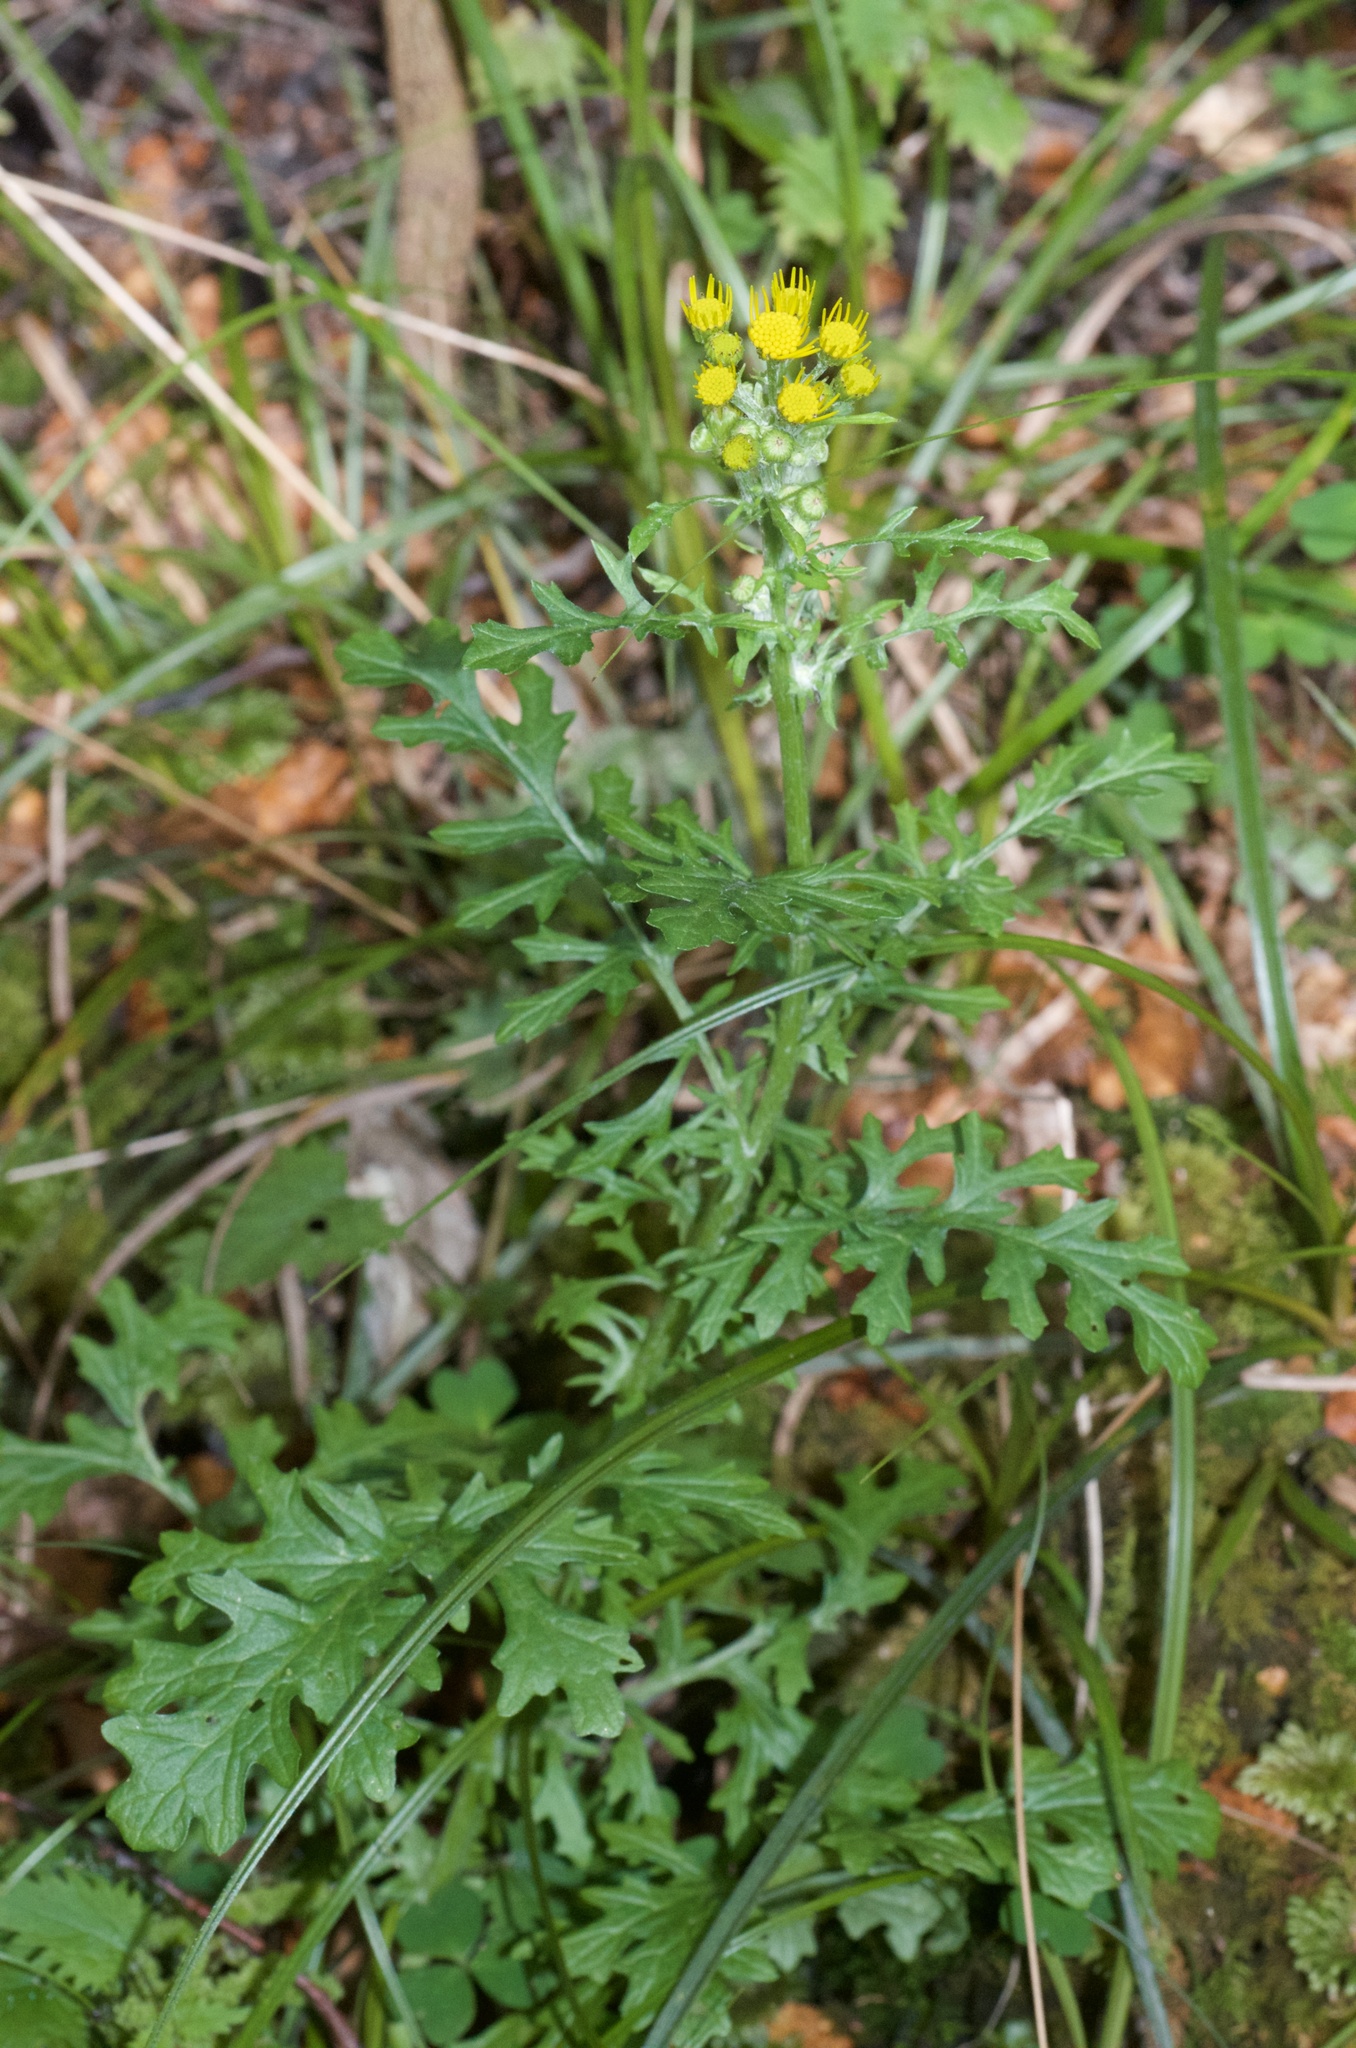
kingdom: Plantae
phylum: Tracheophyta
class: Magnoliopsida
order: Asterales
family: Asteraceae
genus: Jacobaea
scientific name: Jacobaea vulgaris
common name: Stinking willie
